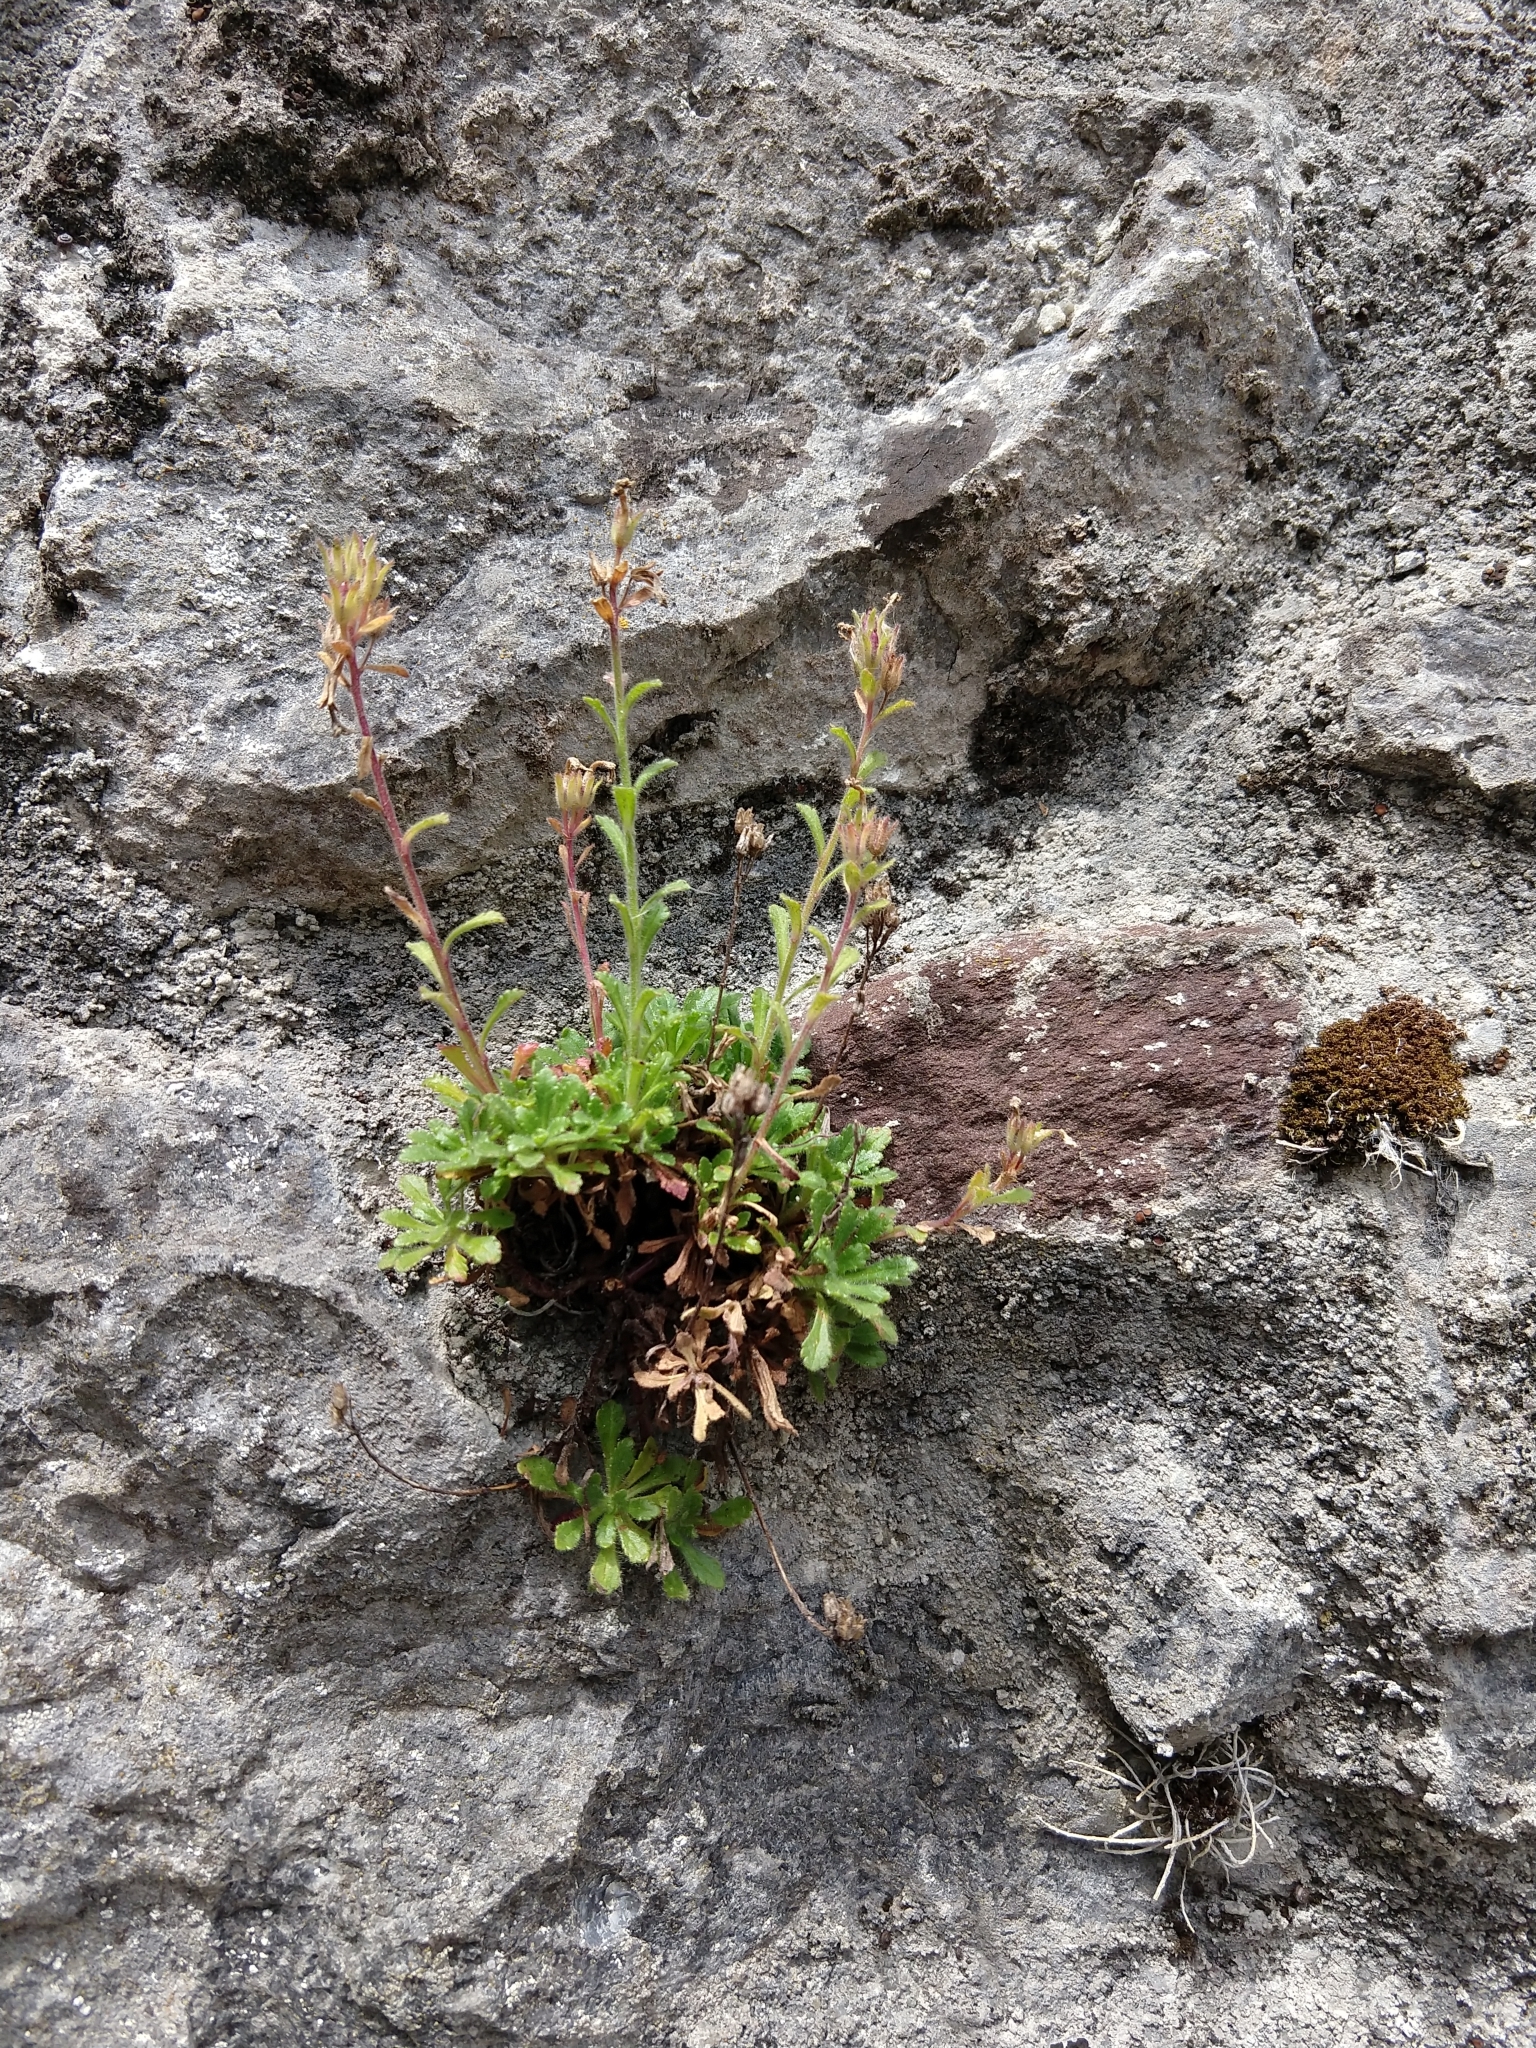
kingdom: Plantae
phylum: Tracheophyta
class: Magnoliopsida
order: Lamiales
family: Plantaginaceae
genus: Erinus
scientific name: Erinus alpinus
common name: Fairy foxglove
